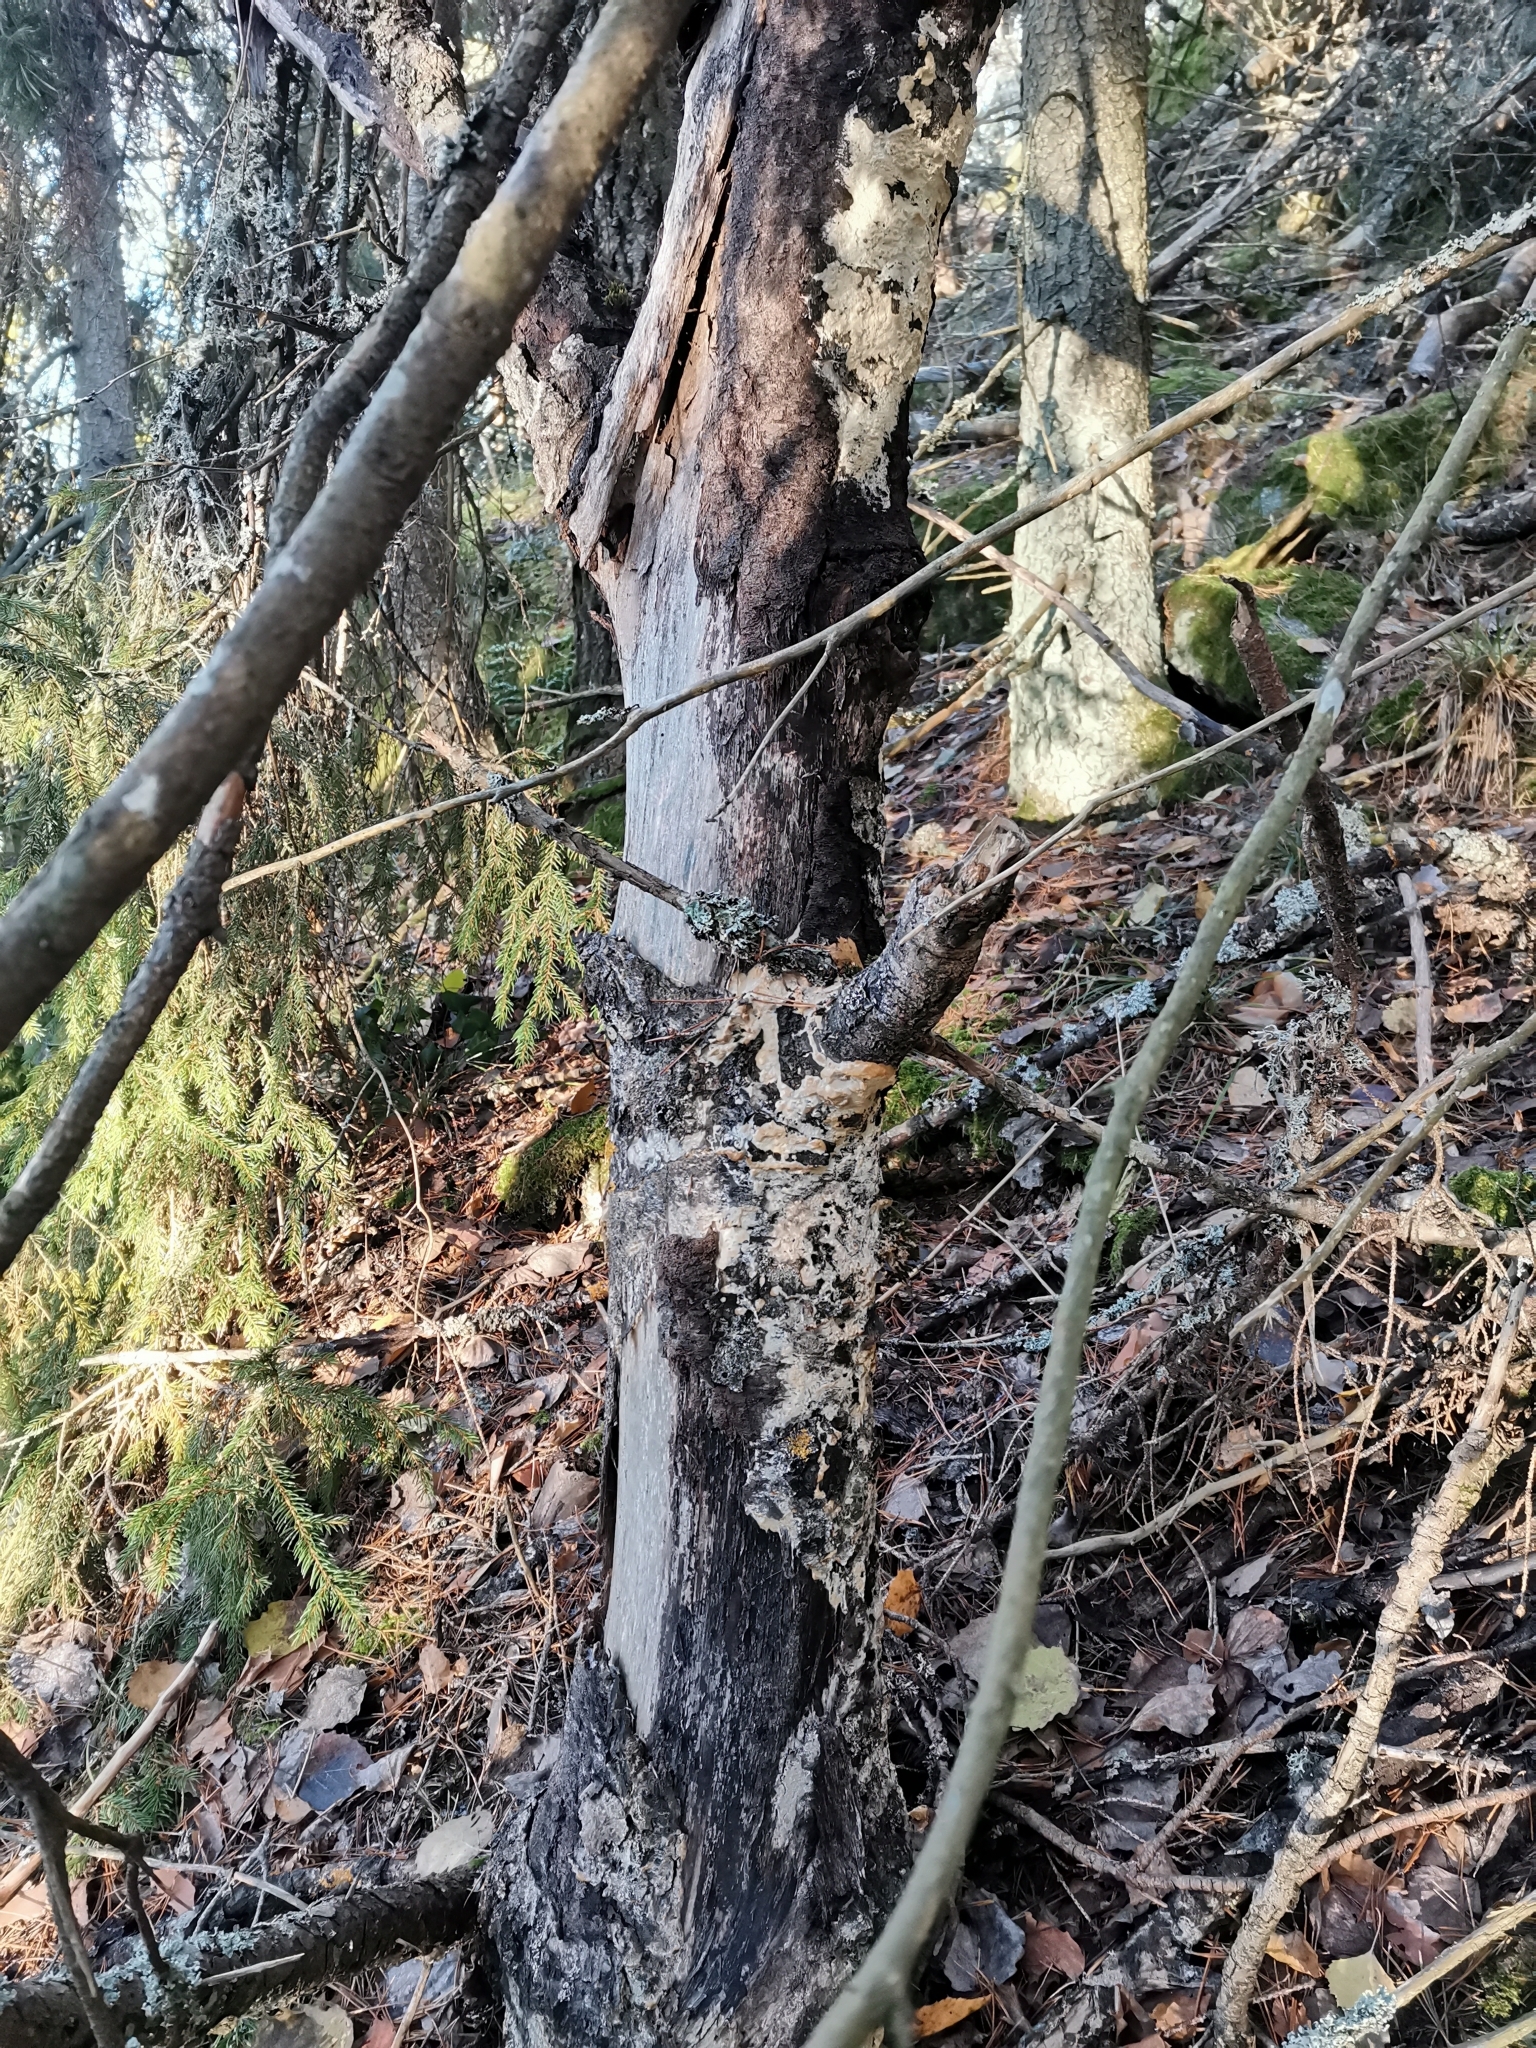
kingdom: Fungi
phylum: Basidiomycota
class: Agaricomycetes
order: Hymenochaetales
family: Oxyporaceae
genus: Oxyporus
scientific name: Oxyporus corticola
